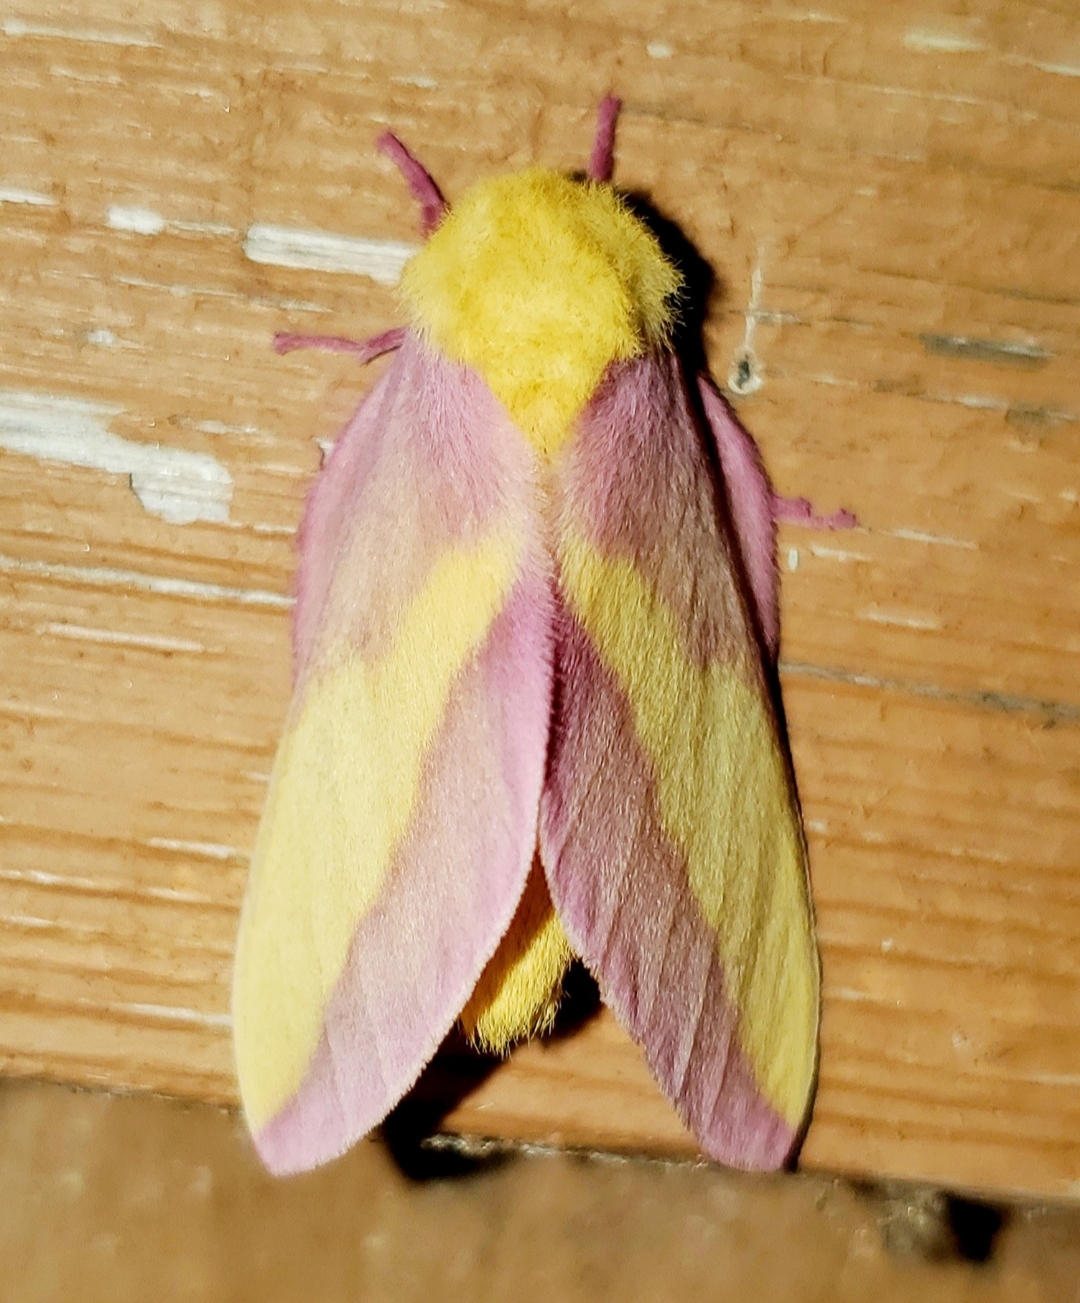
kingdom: Animalia
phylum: Arthropoda
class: Insecta
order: Lepidoptera
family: Saturniidae
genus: Dryocampa
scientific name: Dryocampa rubicunda
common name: Rosy maple moth
